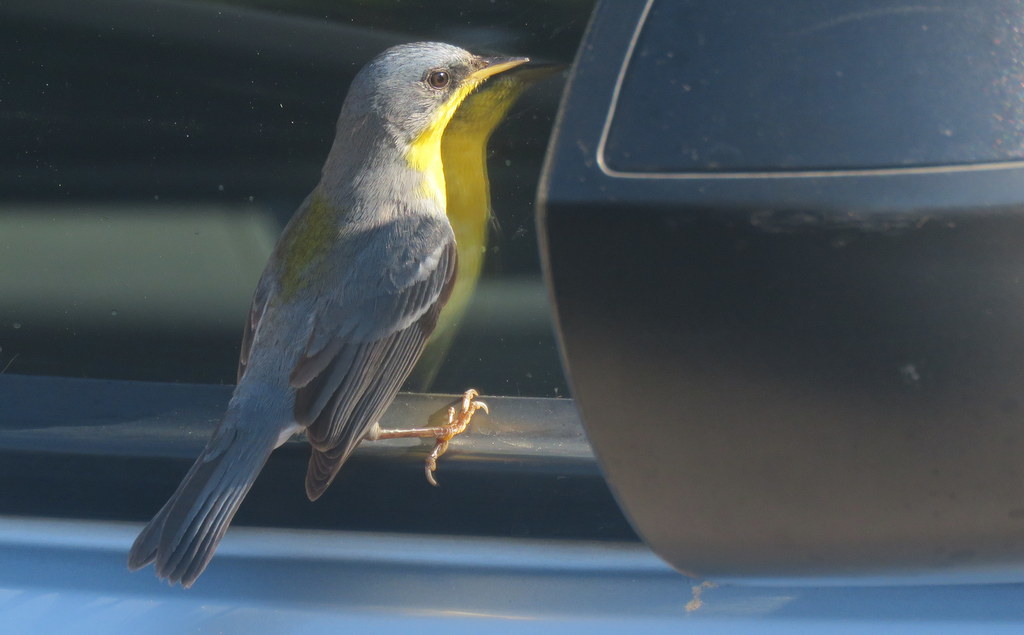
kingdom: Animalia
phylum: Chordata
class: Aves
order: Passeriformes
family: Parulidae
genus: Setophaga
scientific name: Setophaga pitiayumi
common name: Tropical parula
